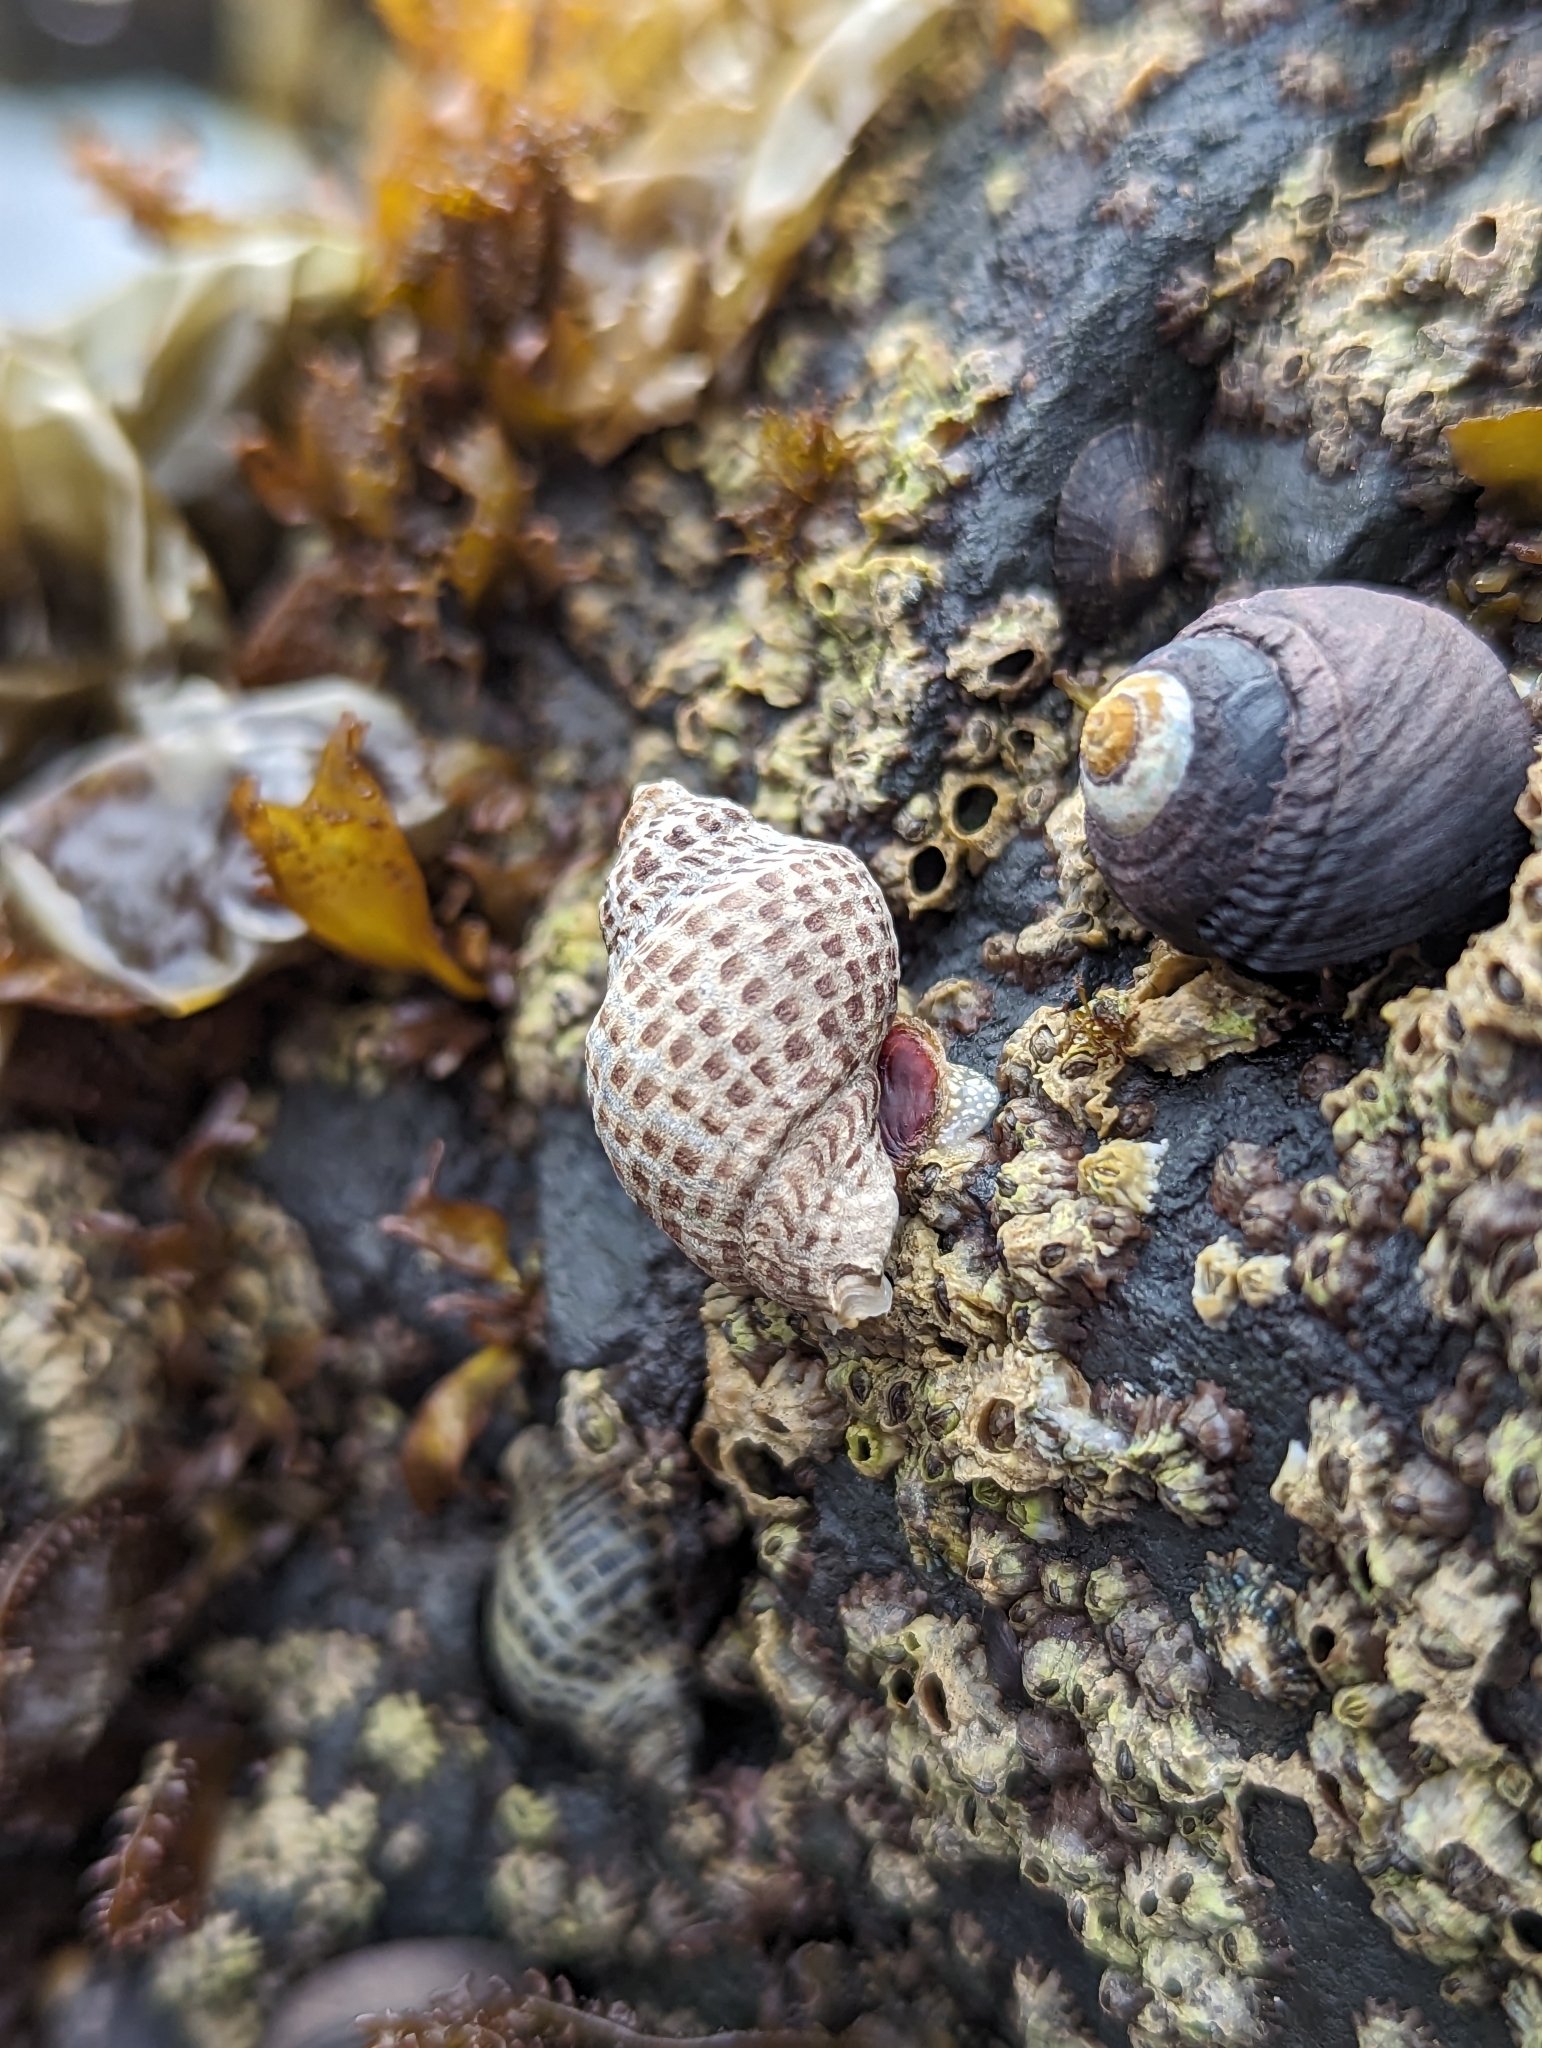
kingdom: Animalia
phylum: Mollusca
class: Gastropoda
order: Neogastropoda
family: Muricidae
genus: Acanthinucella
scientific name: Acanthinucella punctulata
